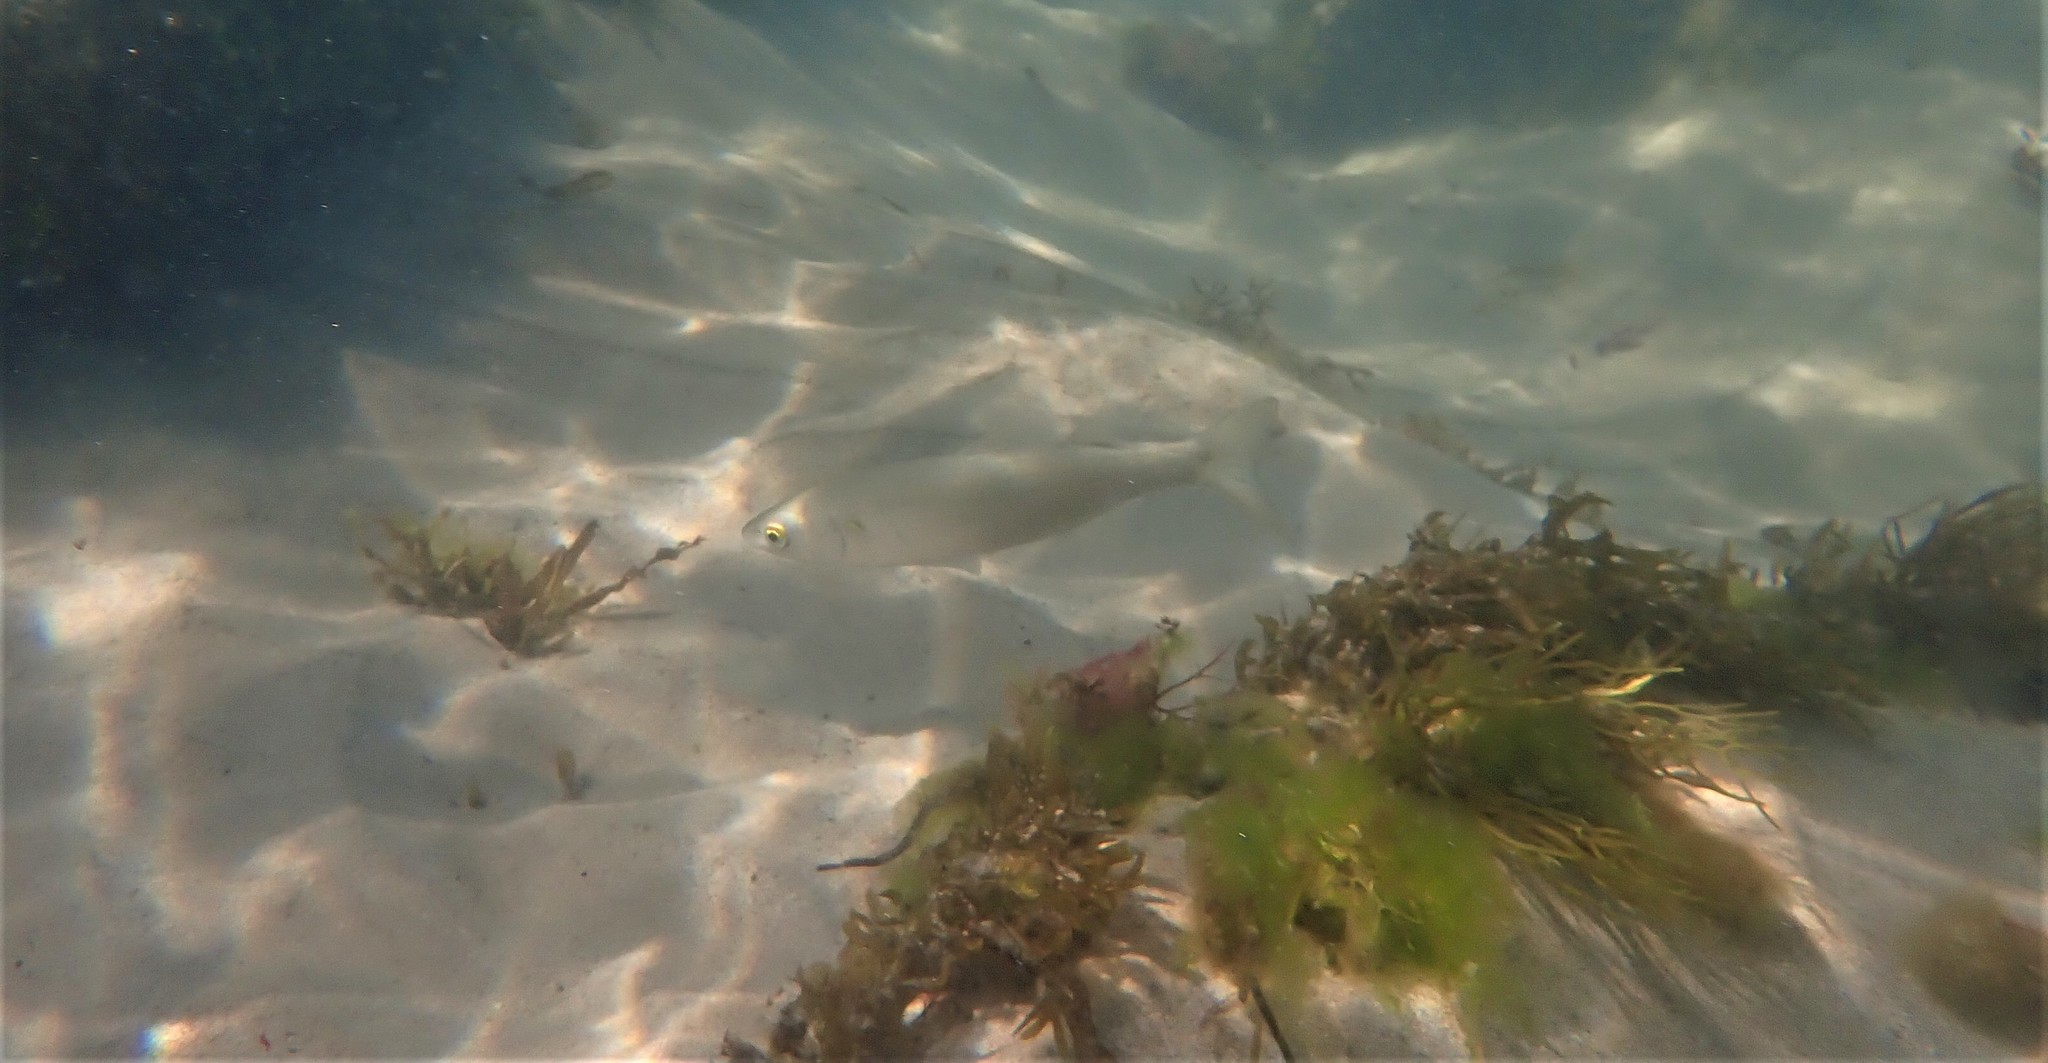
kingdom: Animalia
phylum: Chordata
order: Mugiliformes
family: Mugilidae
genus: Aldrichetta
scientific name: Aldrichetta forsteri
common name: Yellow-eye mullet
